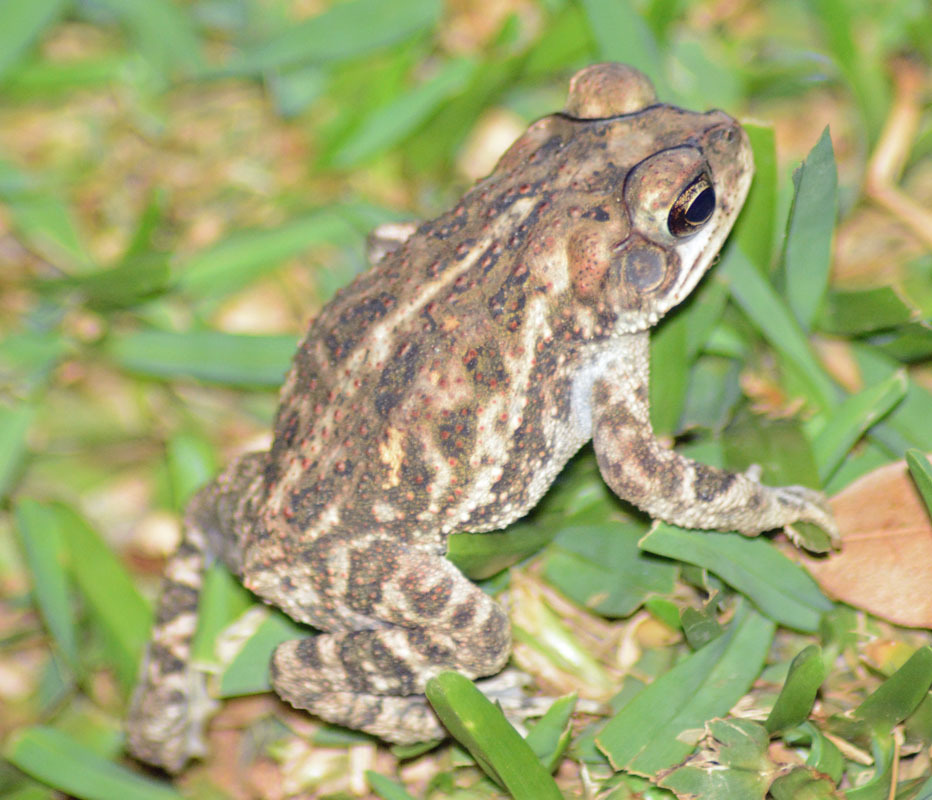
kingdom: Animalia
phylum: Chordata
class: Amphibia
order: Anura
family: Bufonidae
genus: Incilius
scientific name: Incilius mazatlanensis
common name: Sinaloa toad
